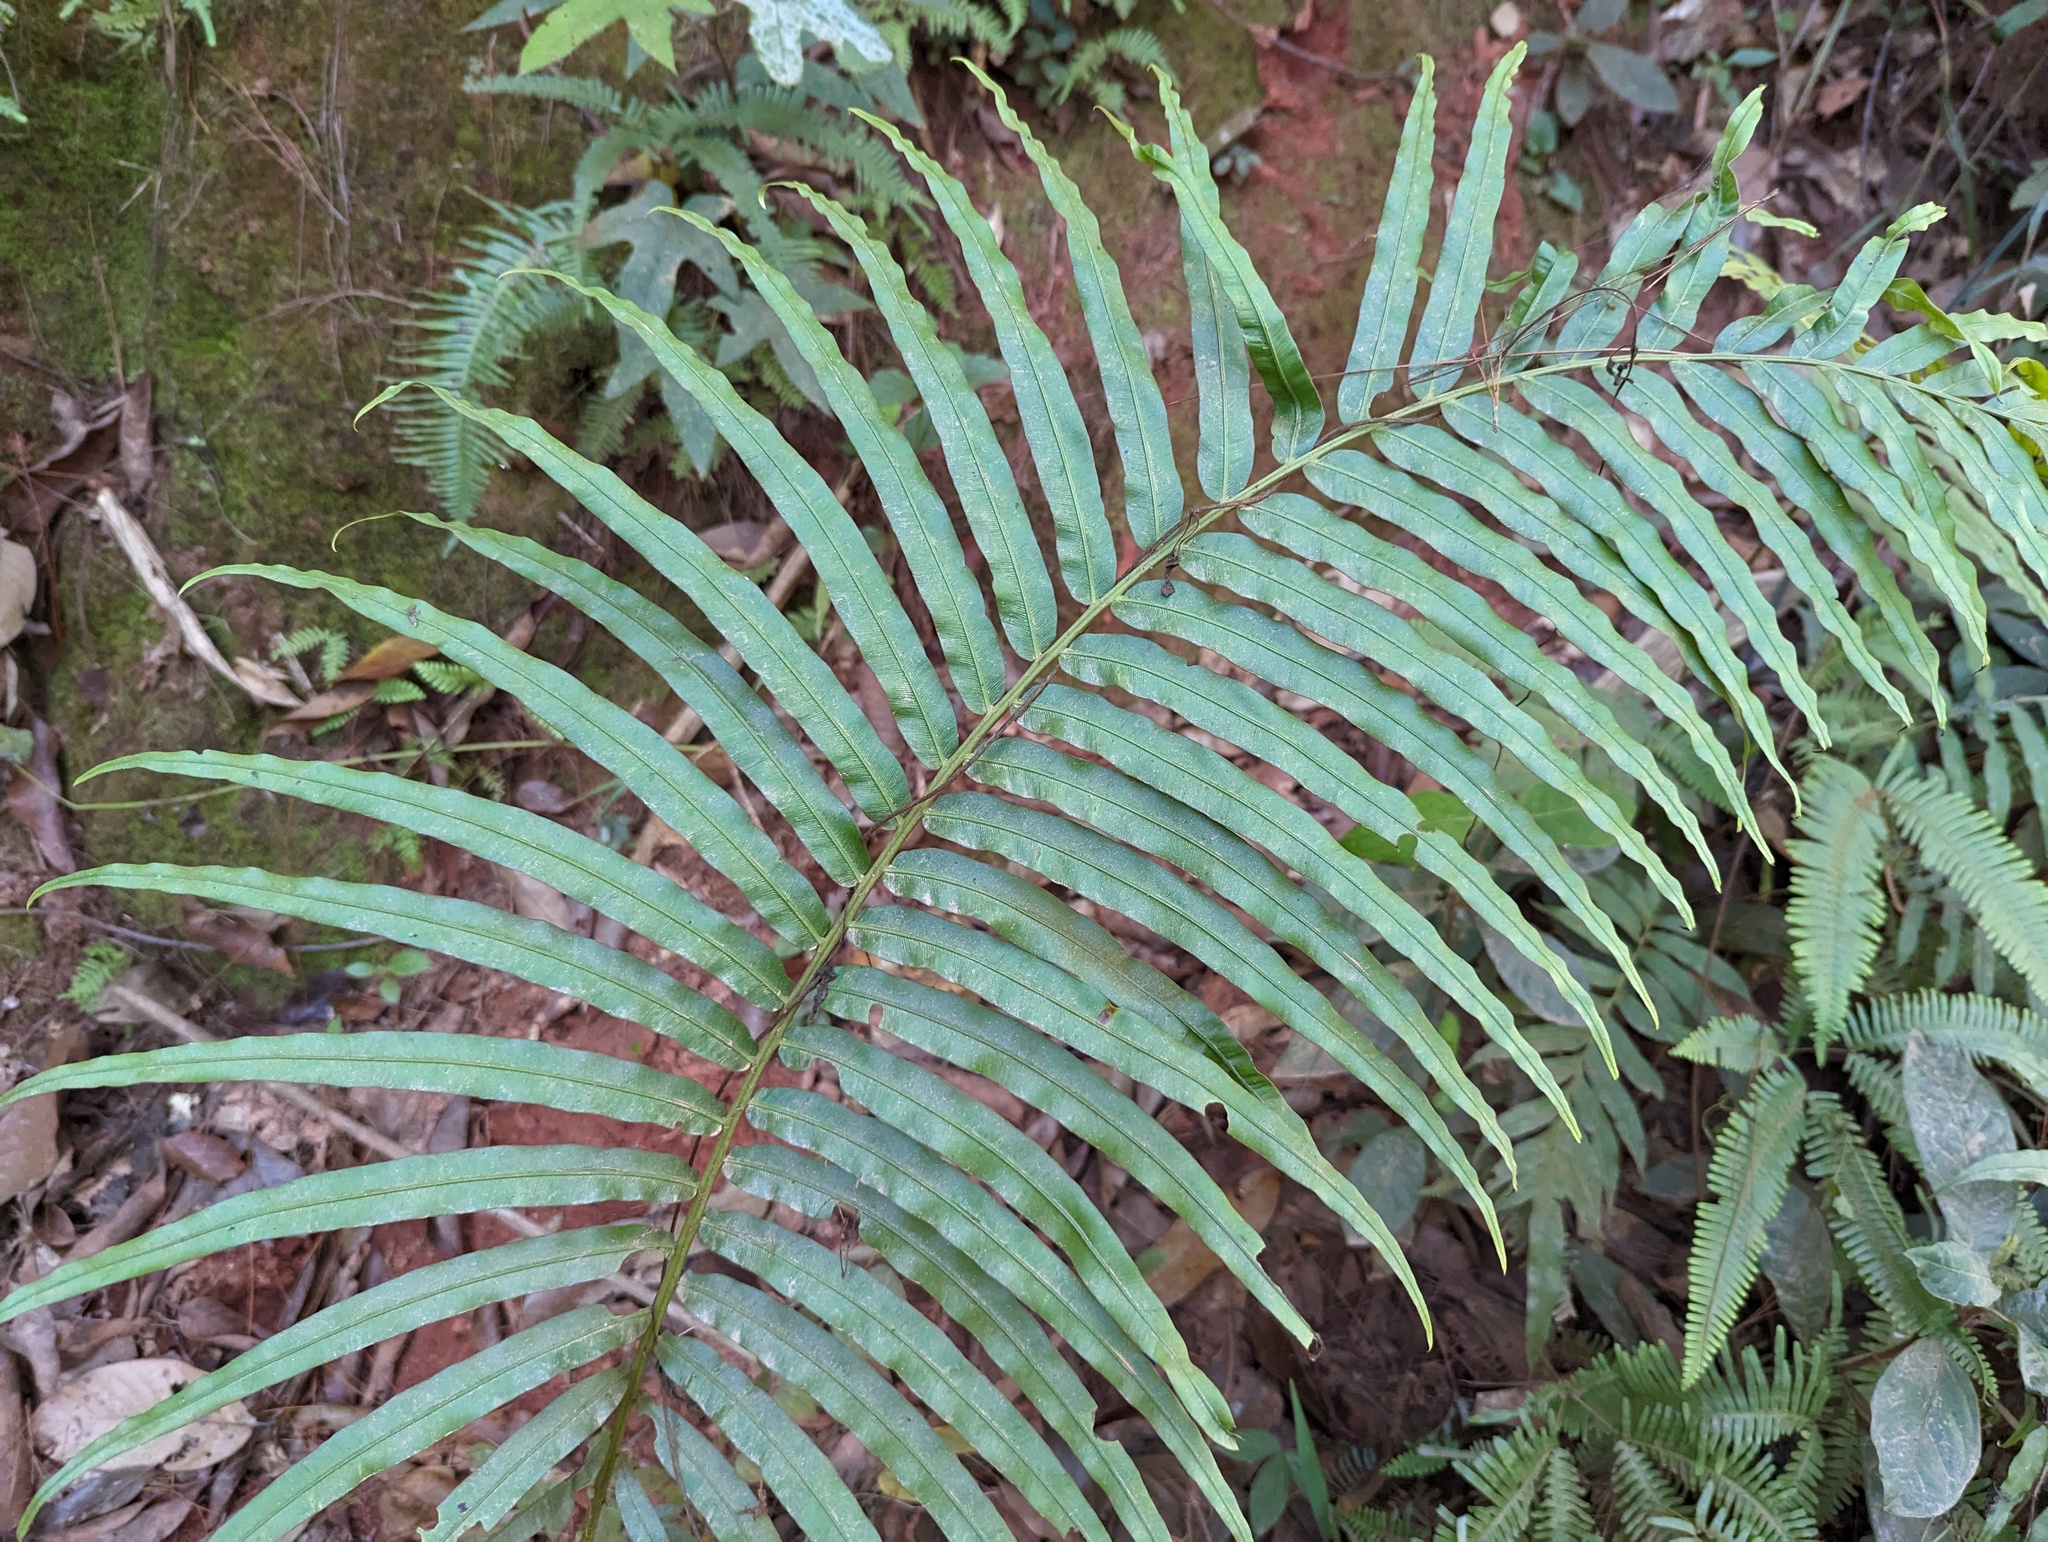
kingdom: Plantae
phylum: Tracheophyta
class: Polypodiopsida
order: Polypodiales
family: Blechnaceae
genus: Blechnopsis
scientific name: Blechnopsis orientalis
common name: Oriental blechnum
